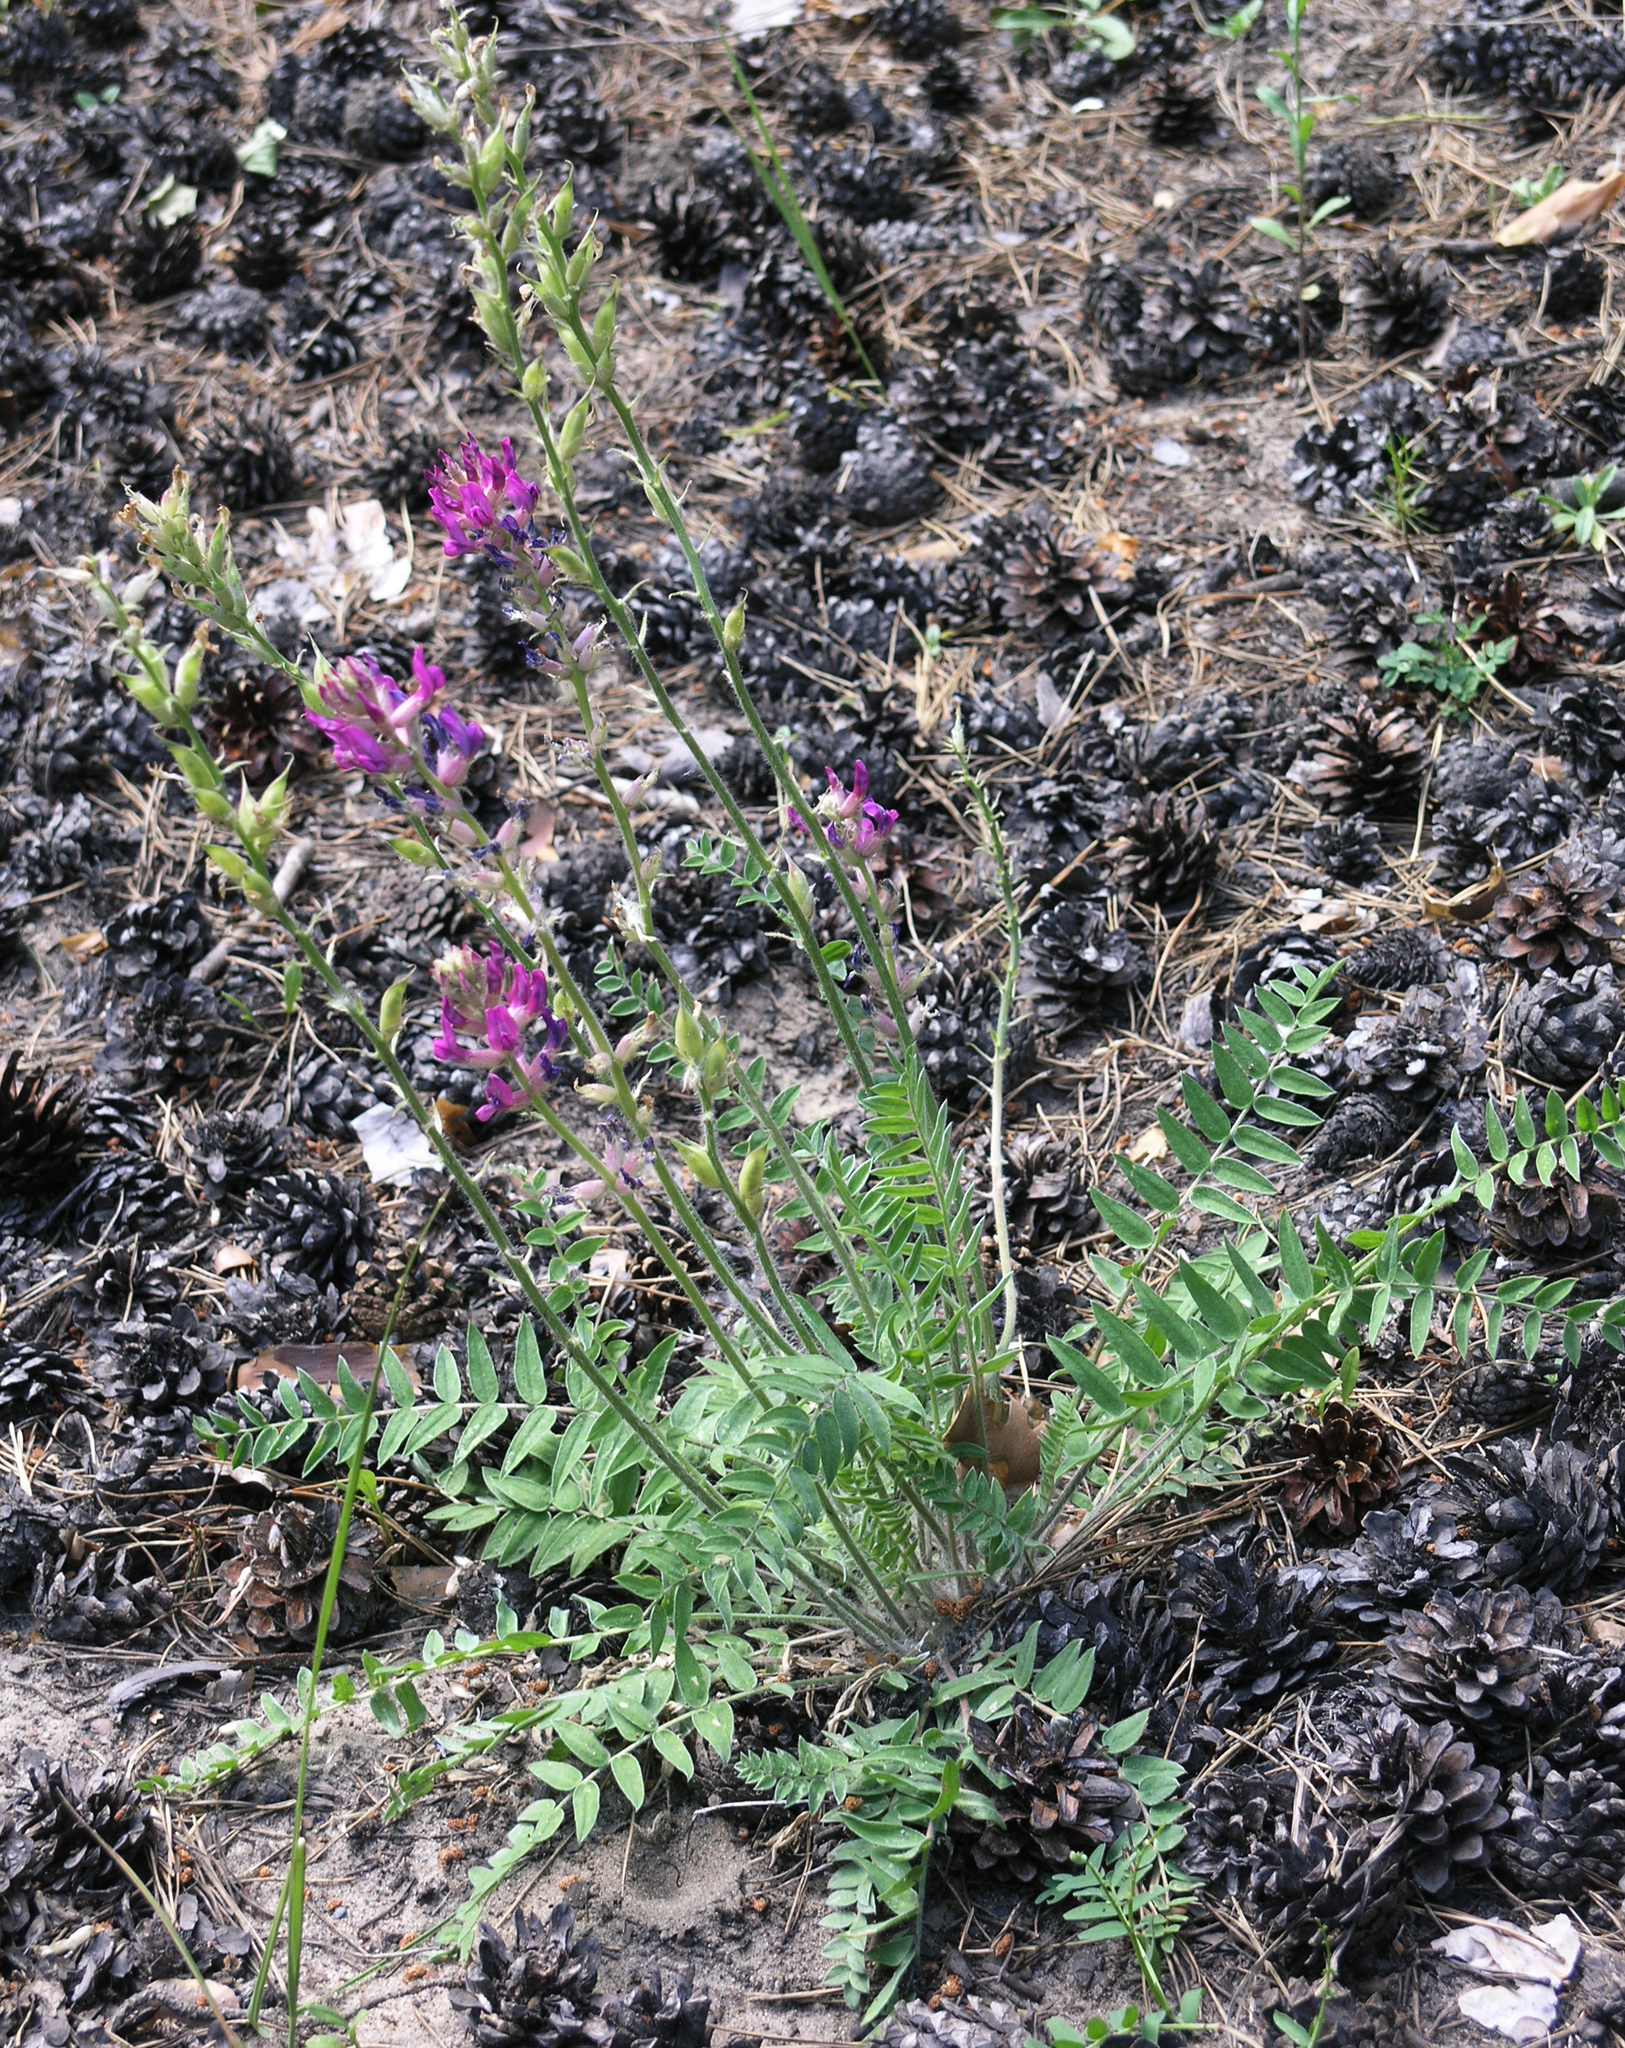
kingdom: Plantae
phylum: Tracheophyta
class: Magnoliopsida
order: Fabales
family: Fabaceae
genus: Oxytropis
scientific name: Oxytropis campanulata
